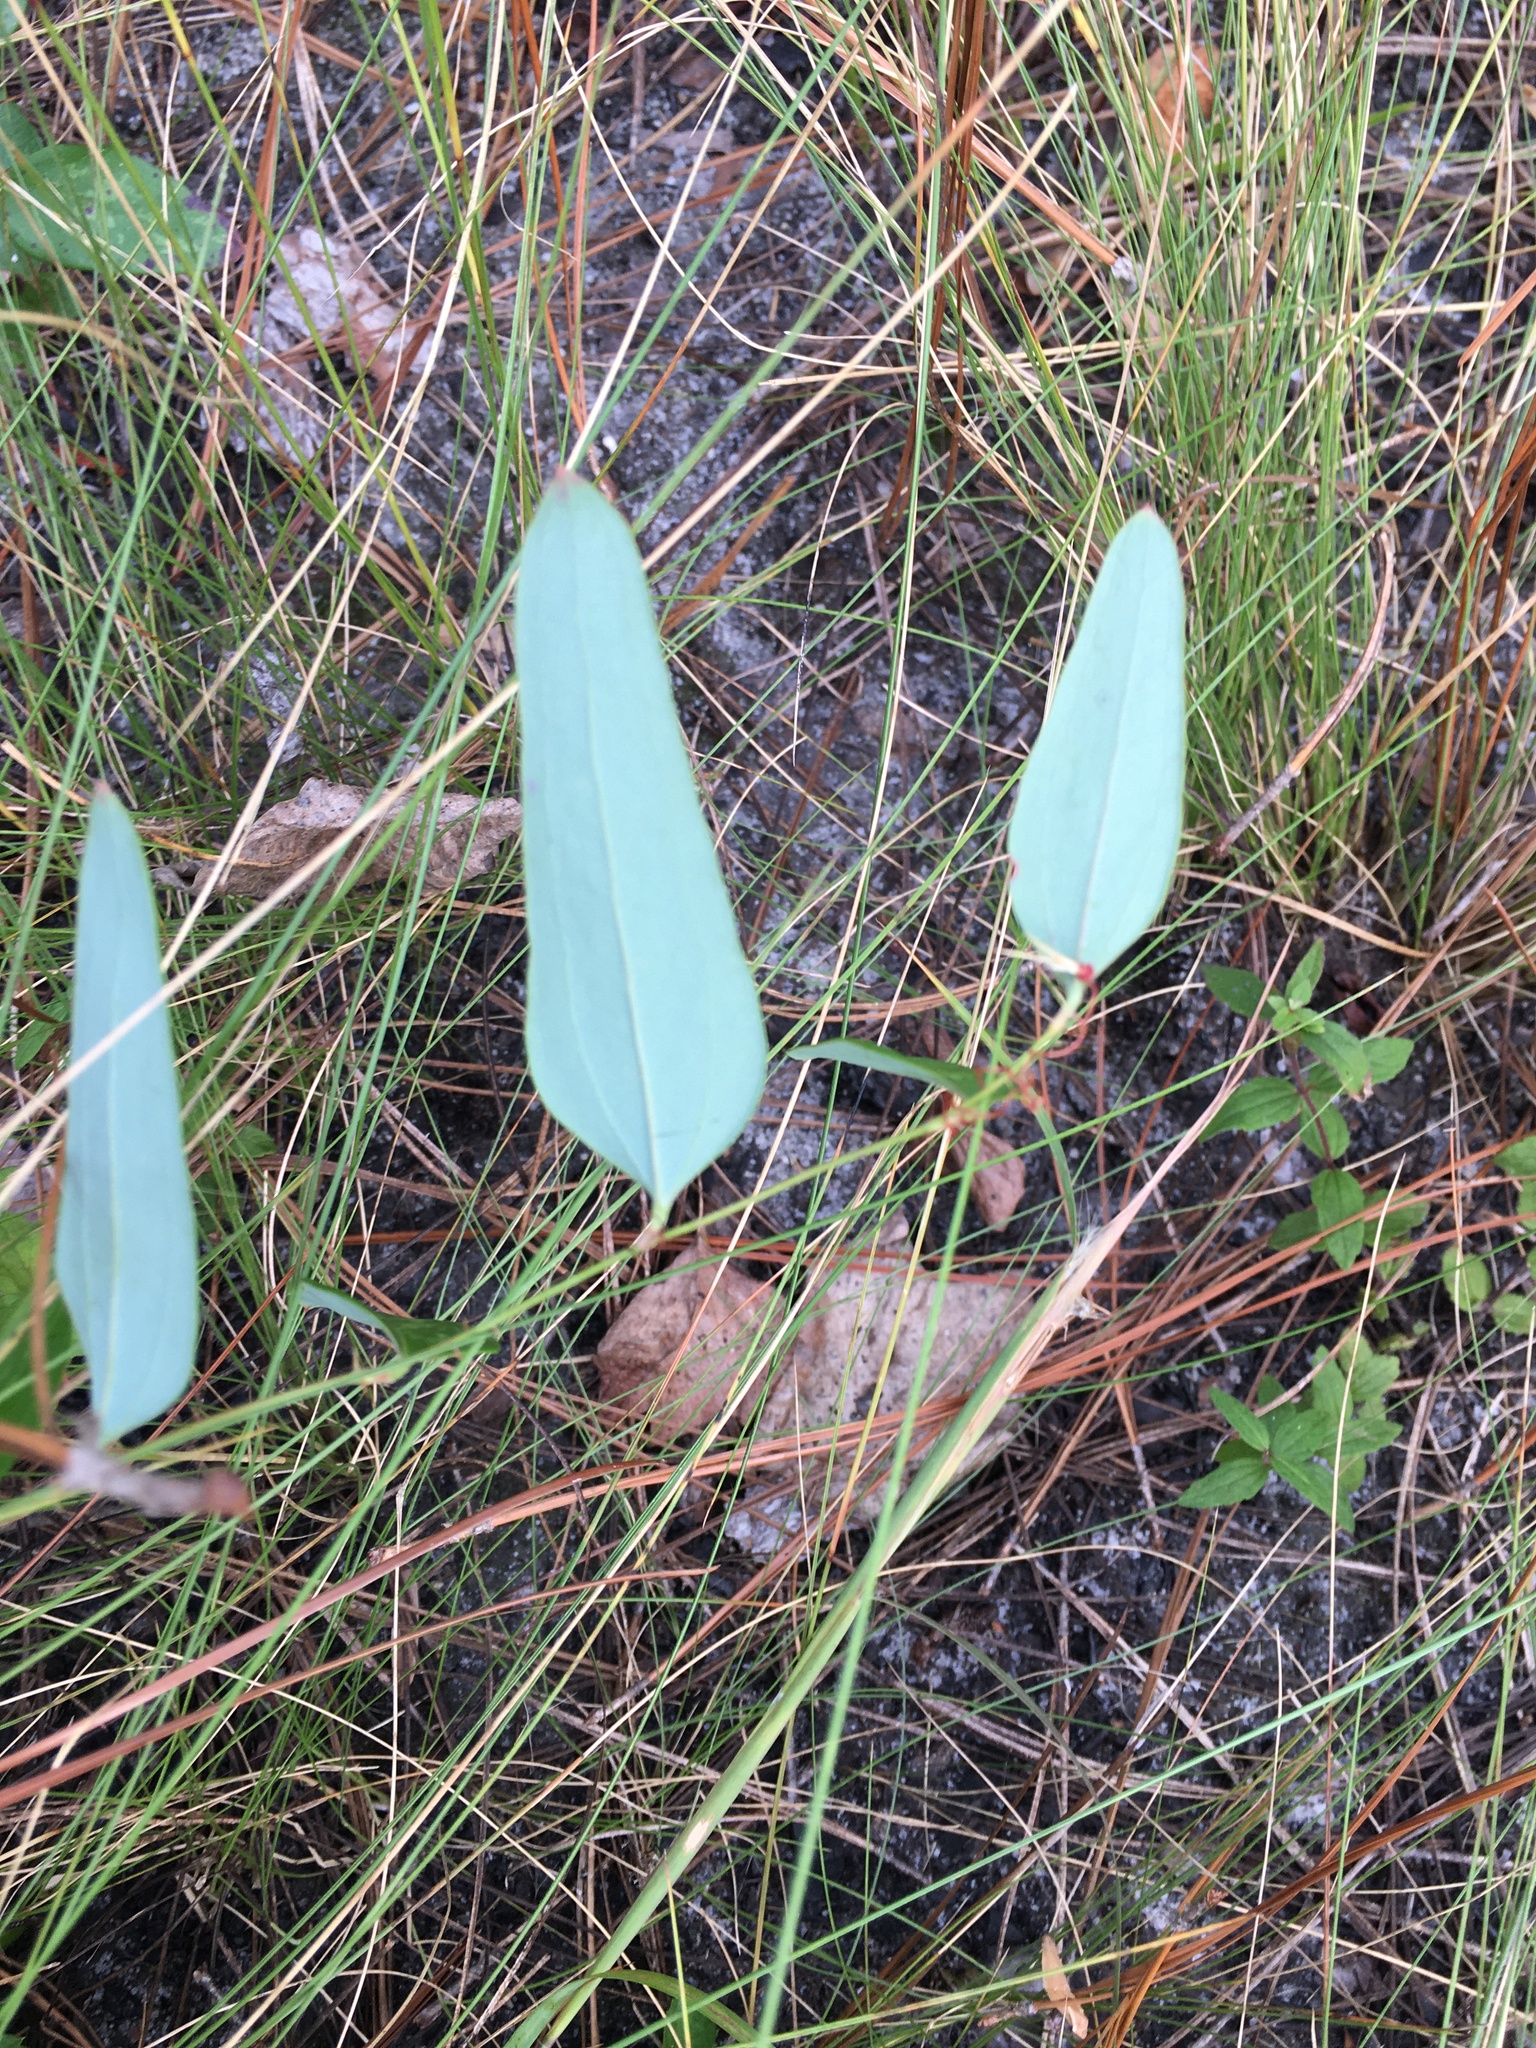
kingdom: Plantae
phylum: Tracheophyta
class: Liliopsida
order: Liliales
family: Smilacaceae
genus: Smilax
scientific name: Smilax glauca
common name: Cat greenbrier
